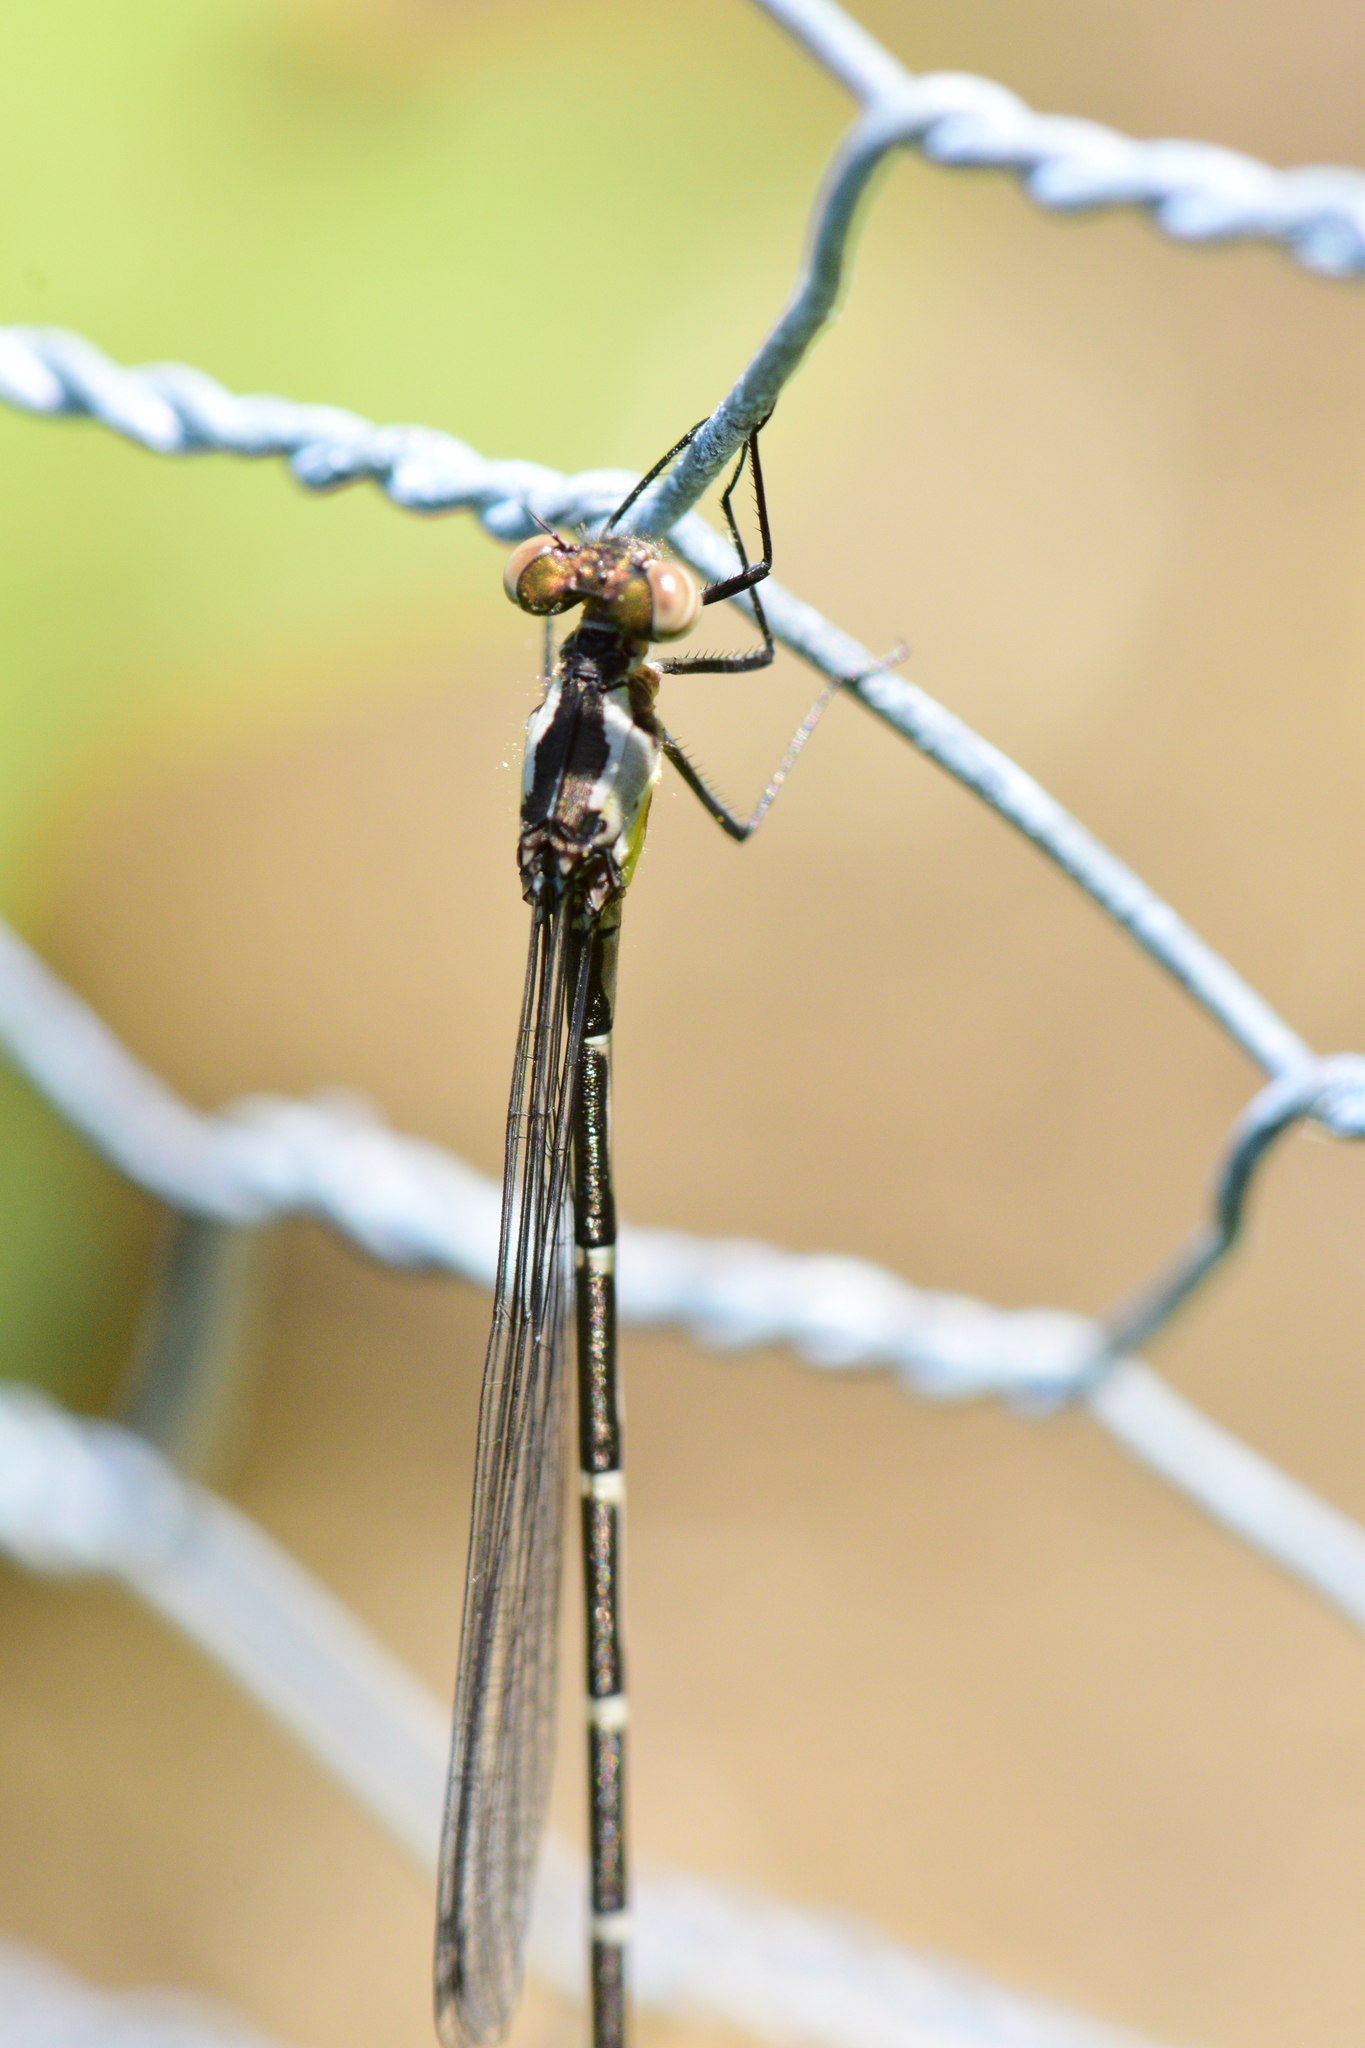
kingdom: Animalia
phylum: Arthropoda
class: Insecta
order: Odonata
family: Coenagrionidae
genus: Chromagrion
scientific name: Chromagrion conditum
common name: Aurora damsel
